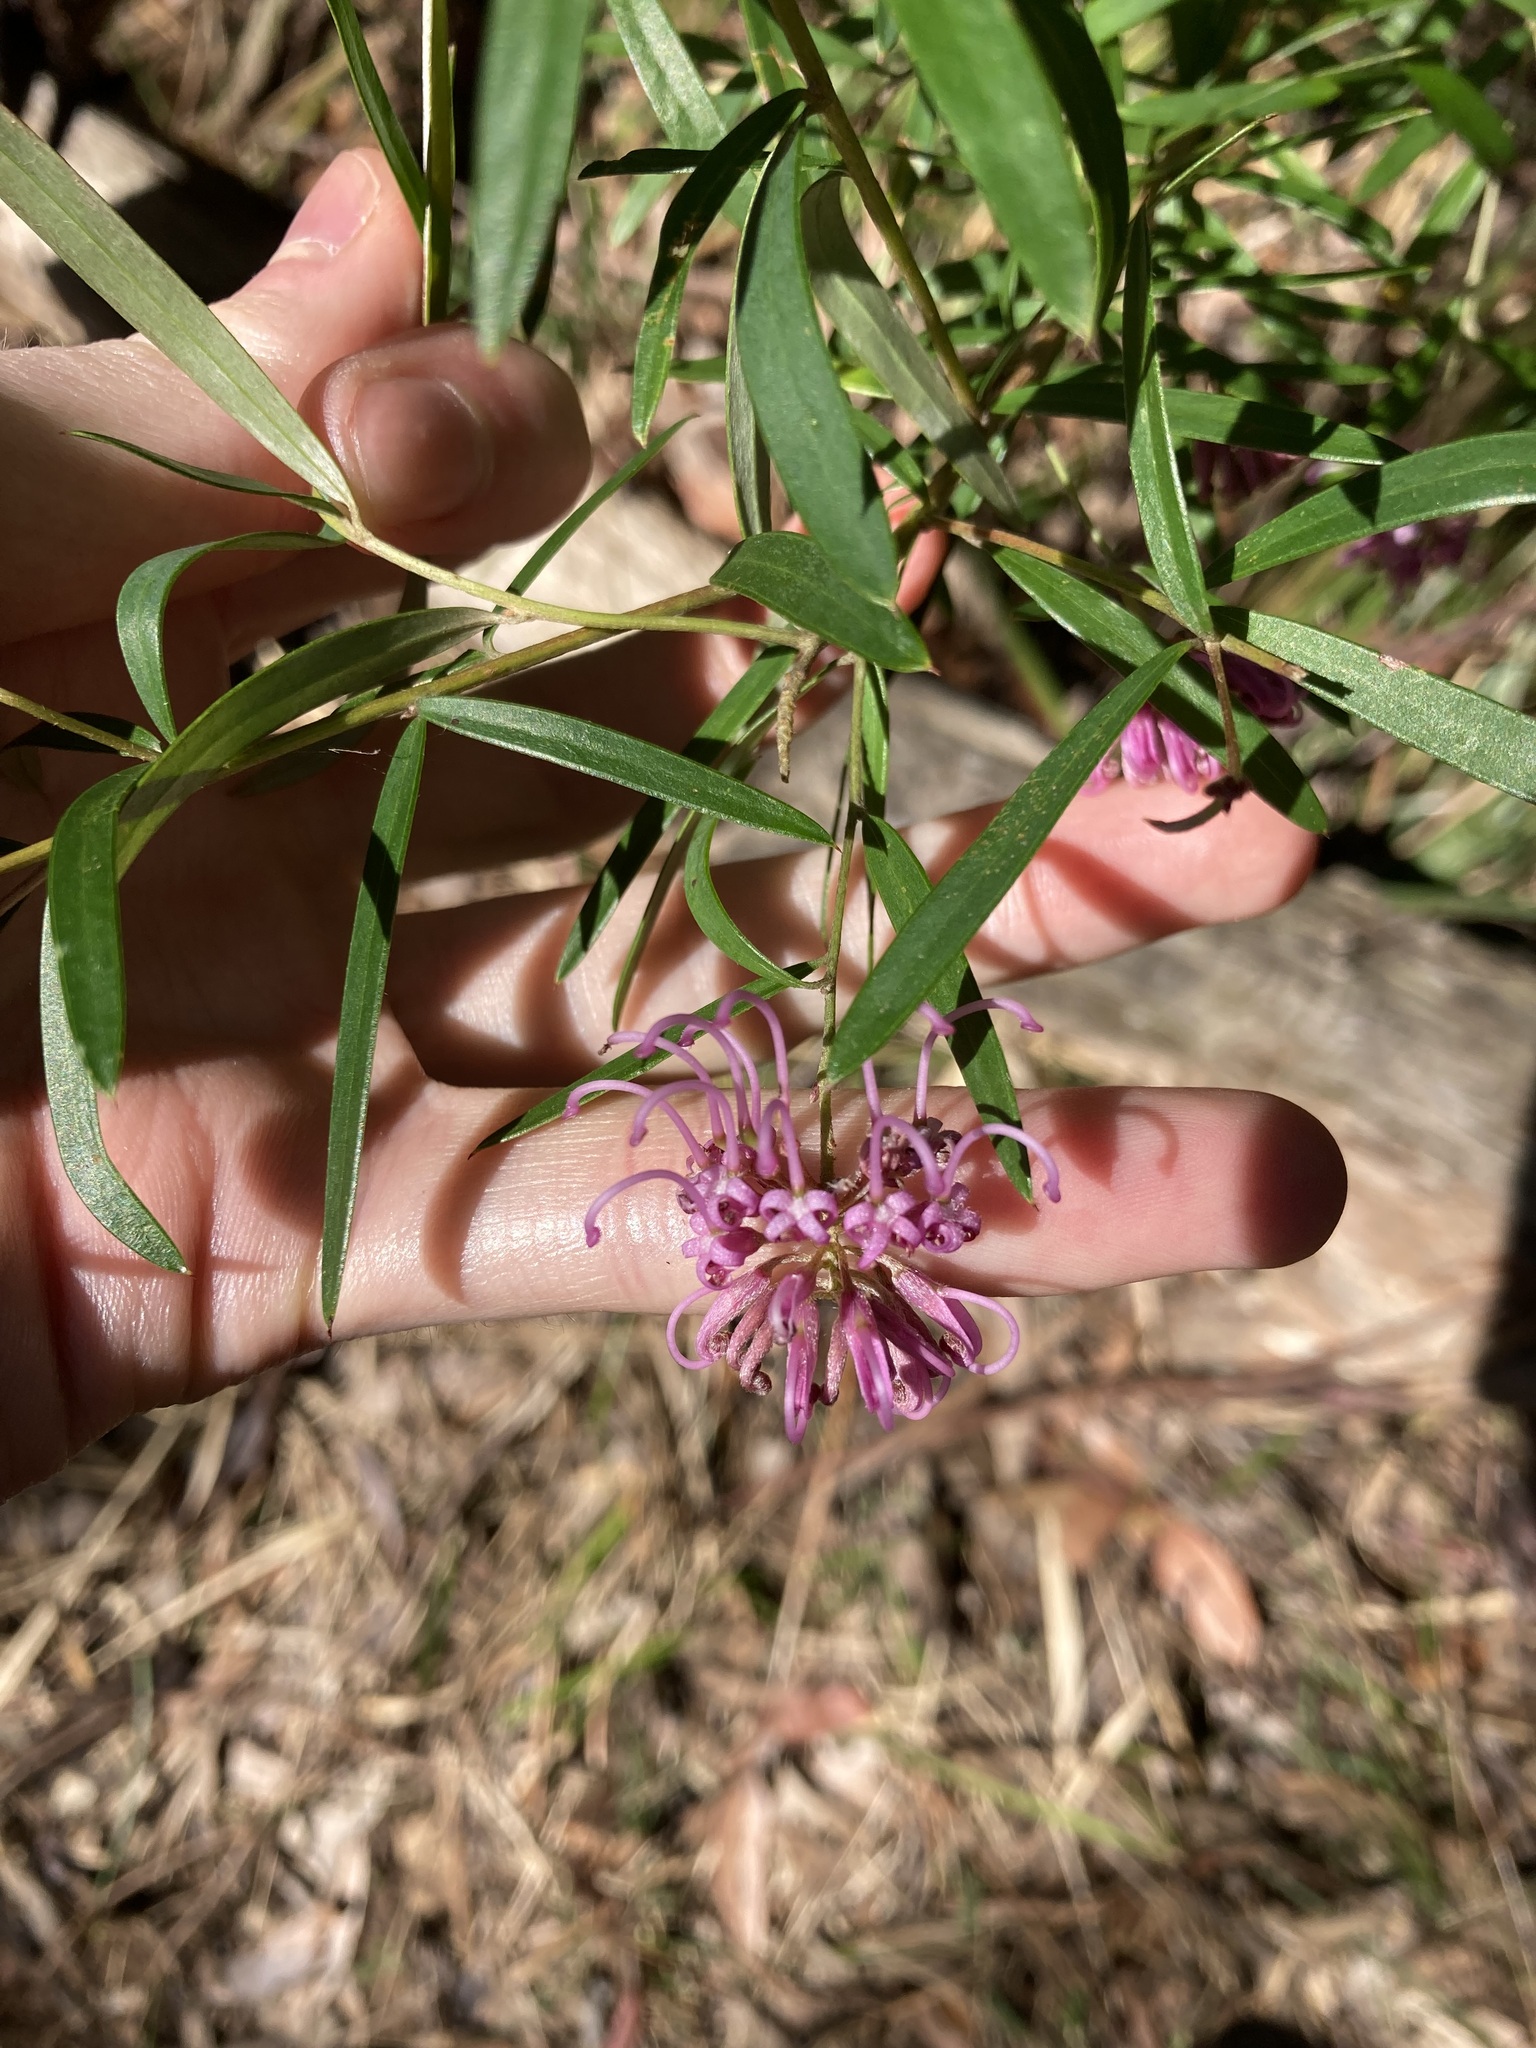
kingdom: Plantae
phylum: Tracheophyta
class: Magnoliopsida
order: Proteales
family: Proteaceae
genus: Grevillea
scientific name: Grevillea sericea
